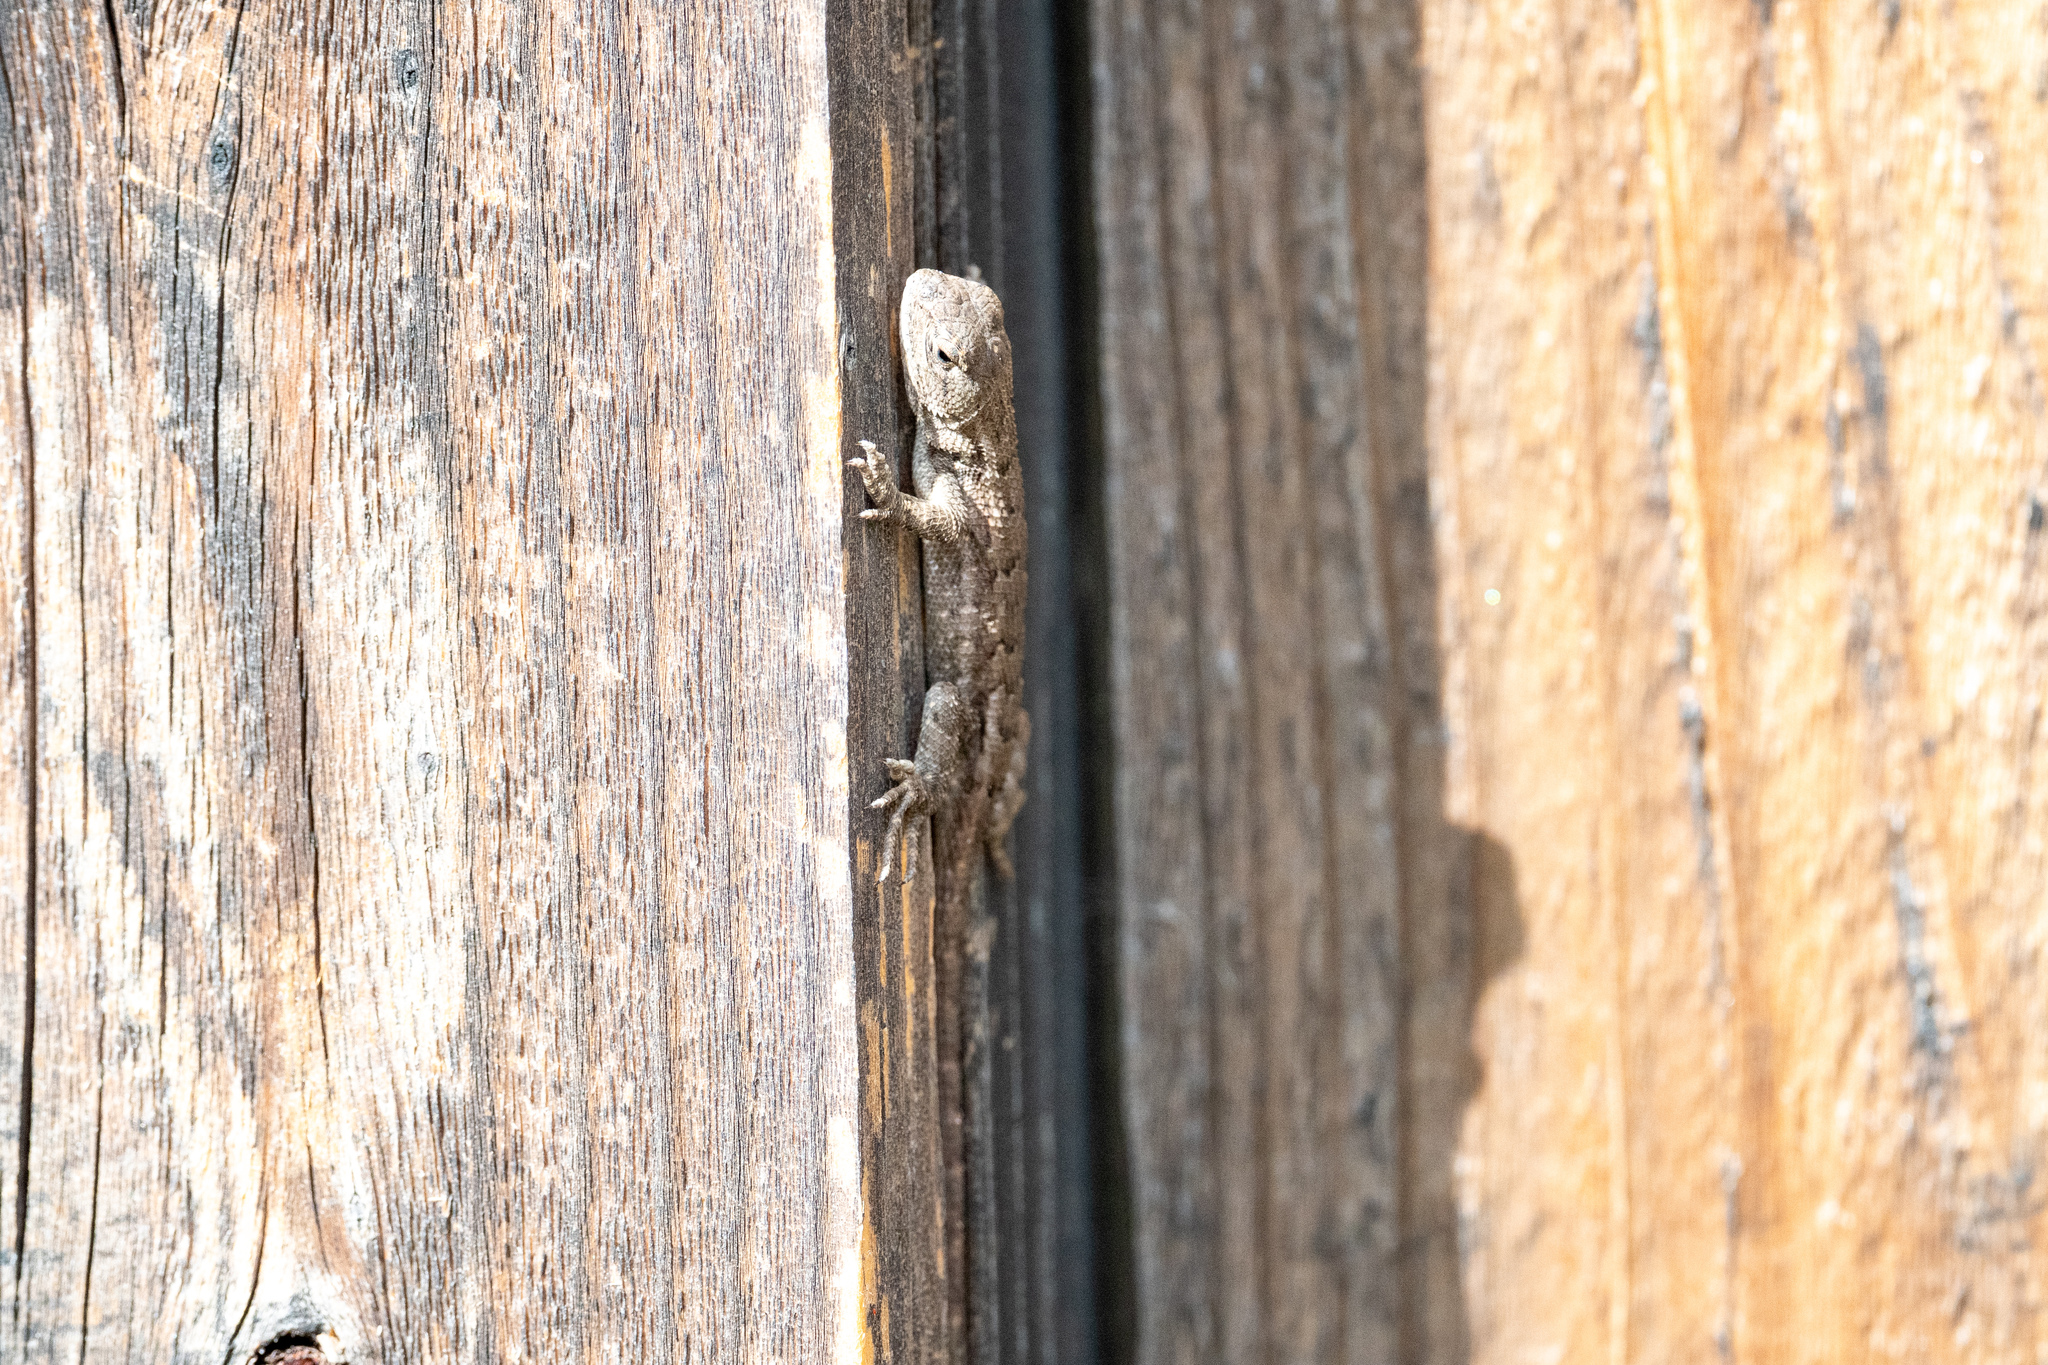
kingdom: Animalia
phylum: Chordata
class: Squamata
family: Phrynosomatidae
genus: Sceloporus
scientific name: Sceloporus occidentalis
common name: Western fence lizard
